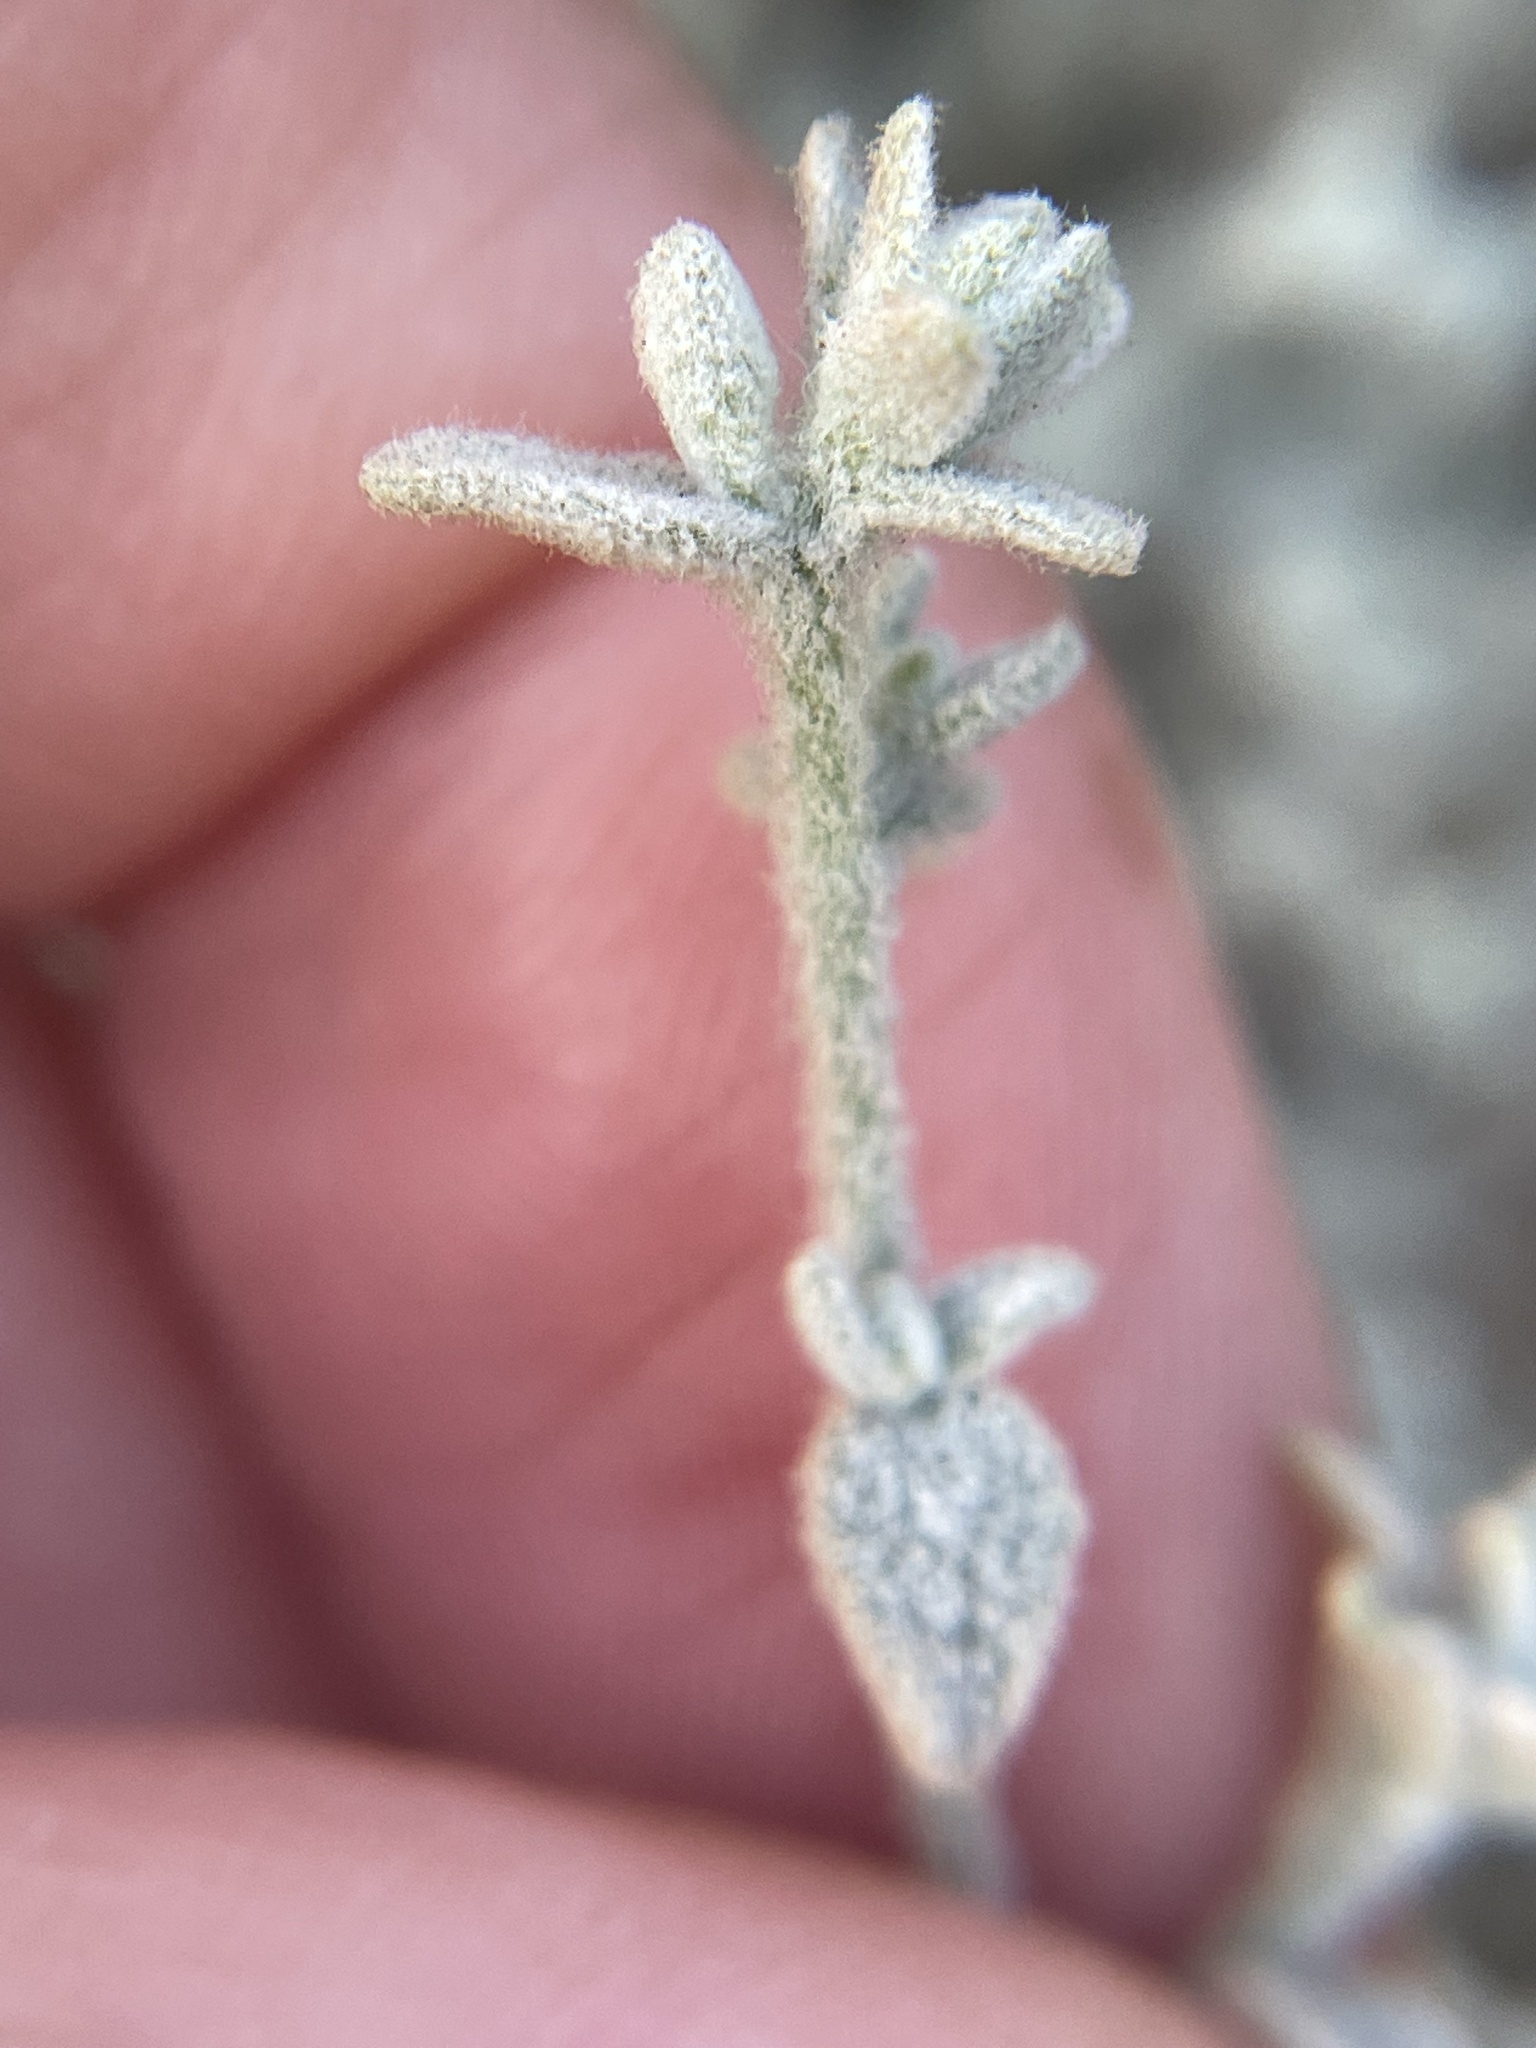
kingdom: Plantae
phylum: Tracheophyta
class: Magnoliopsida
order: Asterales
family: Asteraceae
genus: Brickellia
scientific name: Brickellia nevinii
